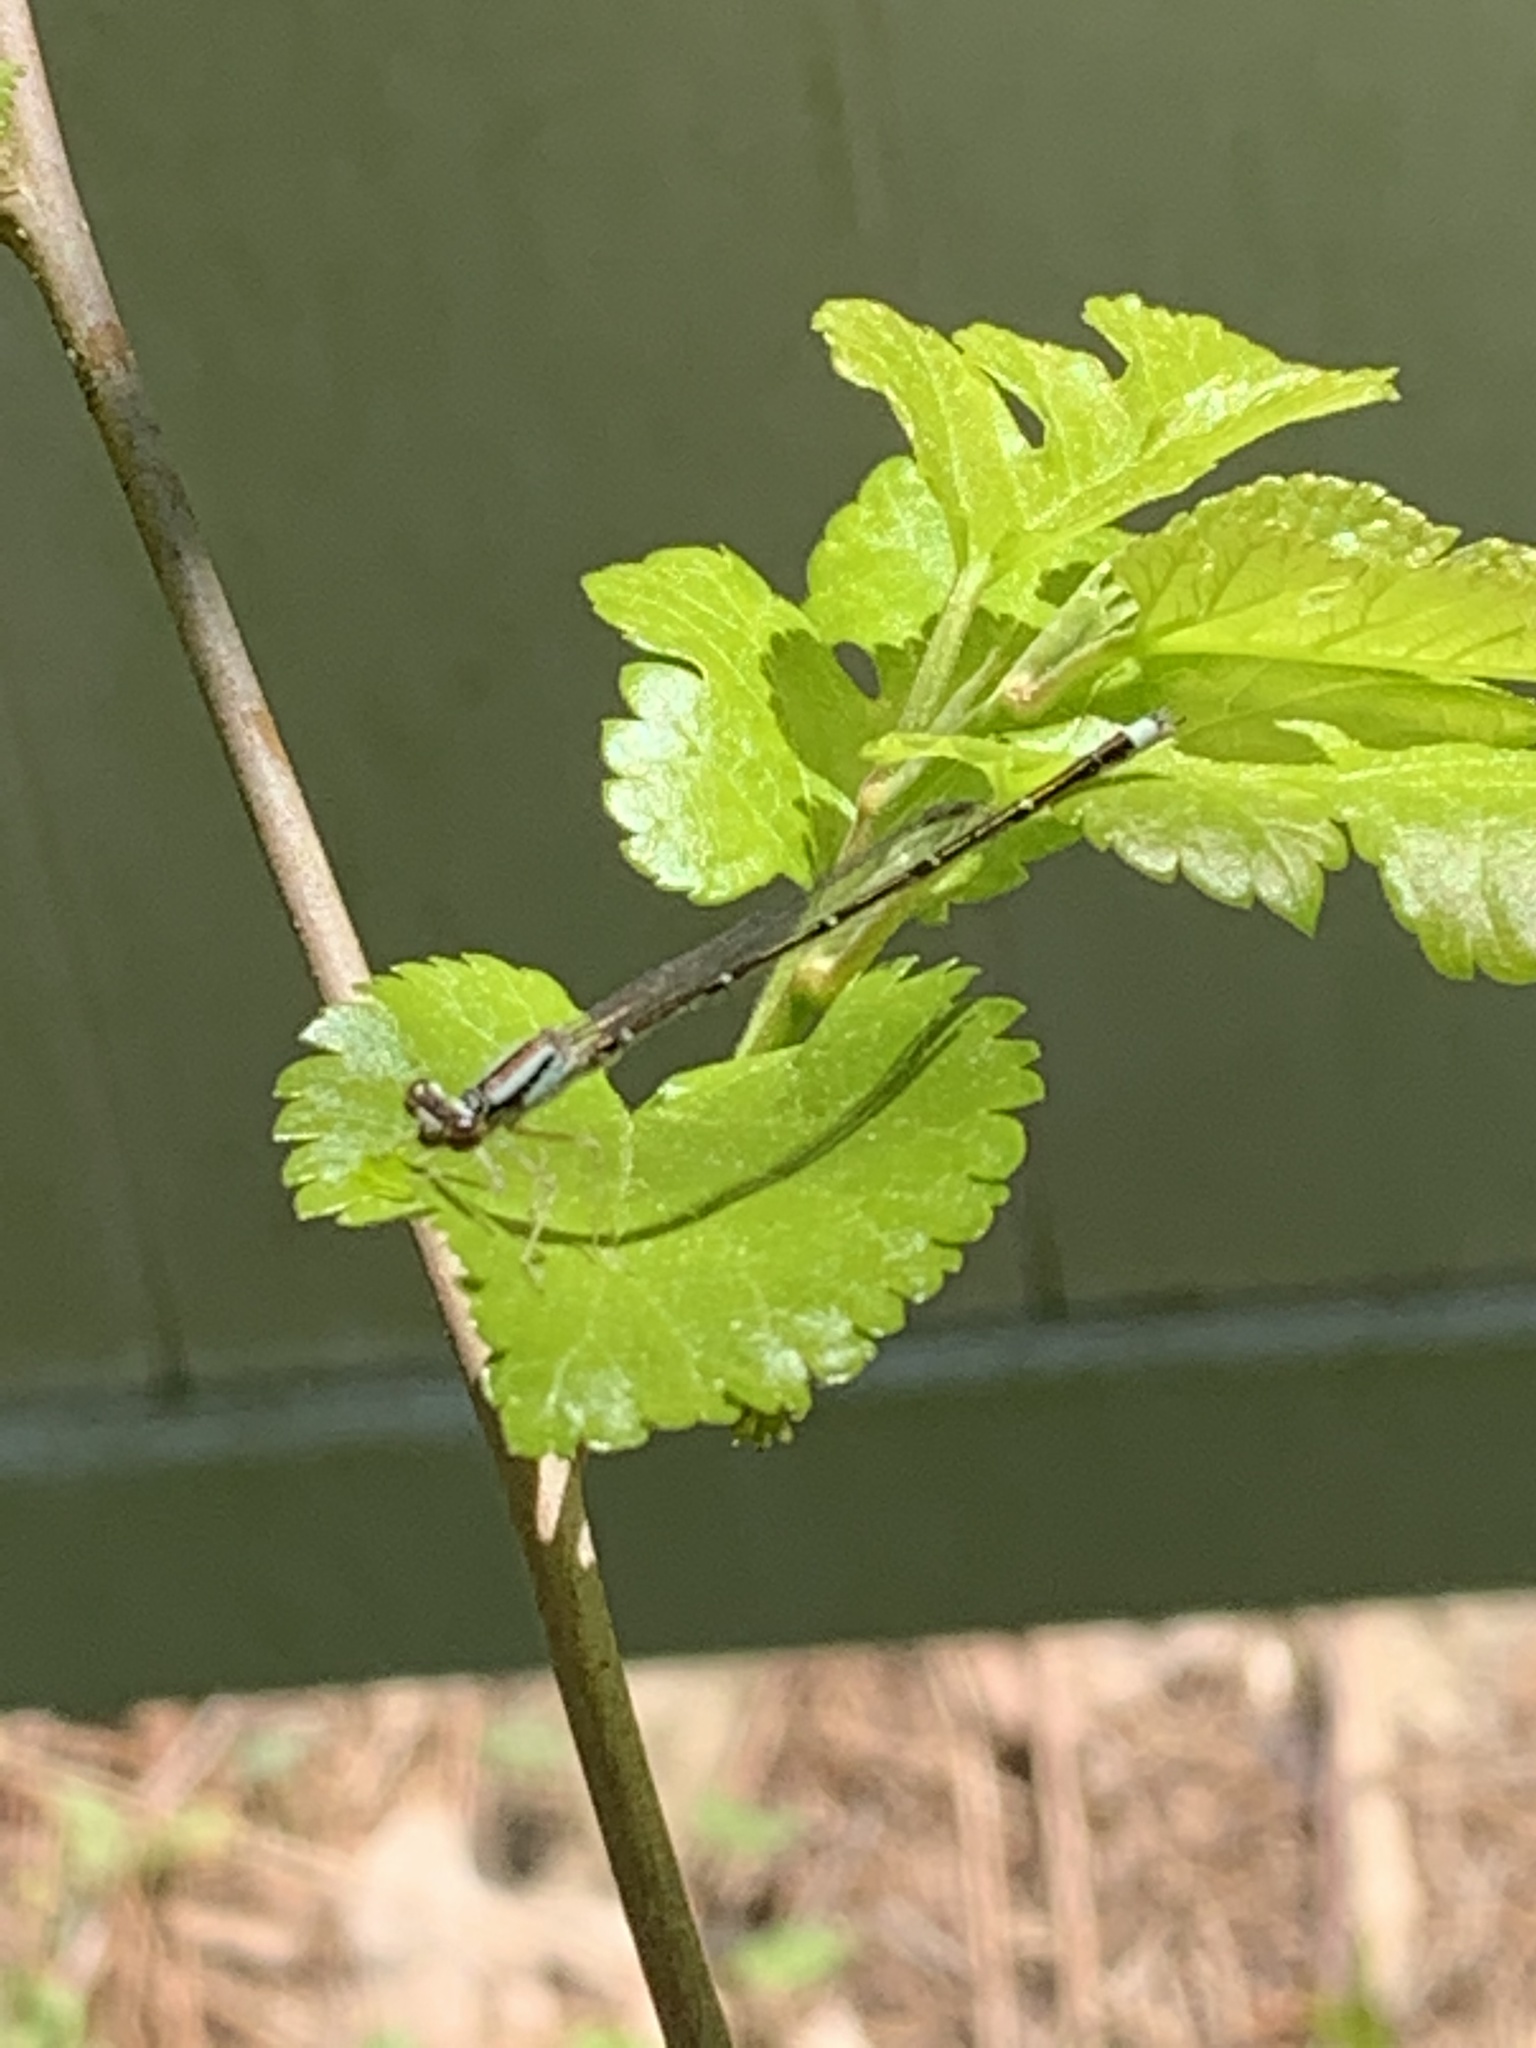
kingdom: Animalia
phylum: Arthropoda
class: Insecta
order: Odonata
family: Coenagrionidae
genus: Enallagma
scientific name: Enallagma signatum
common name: Orange bluet
